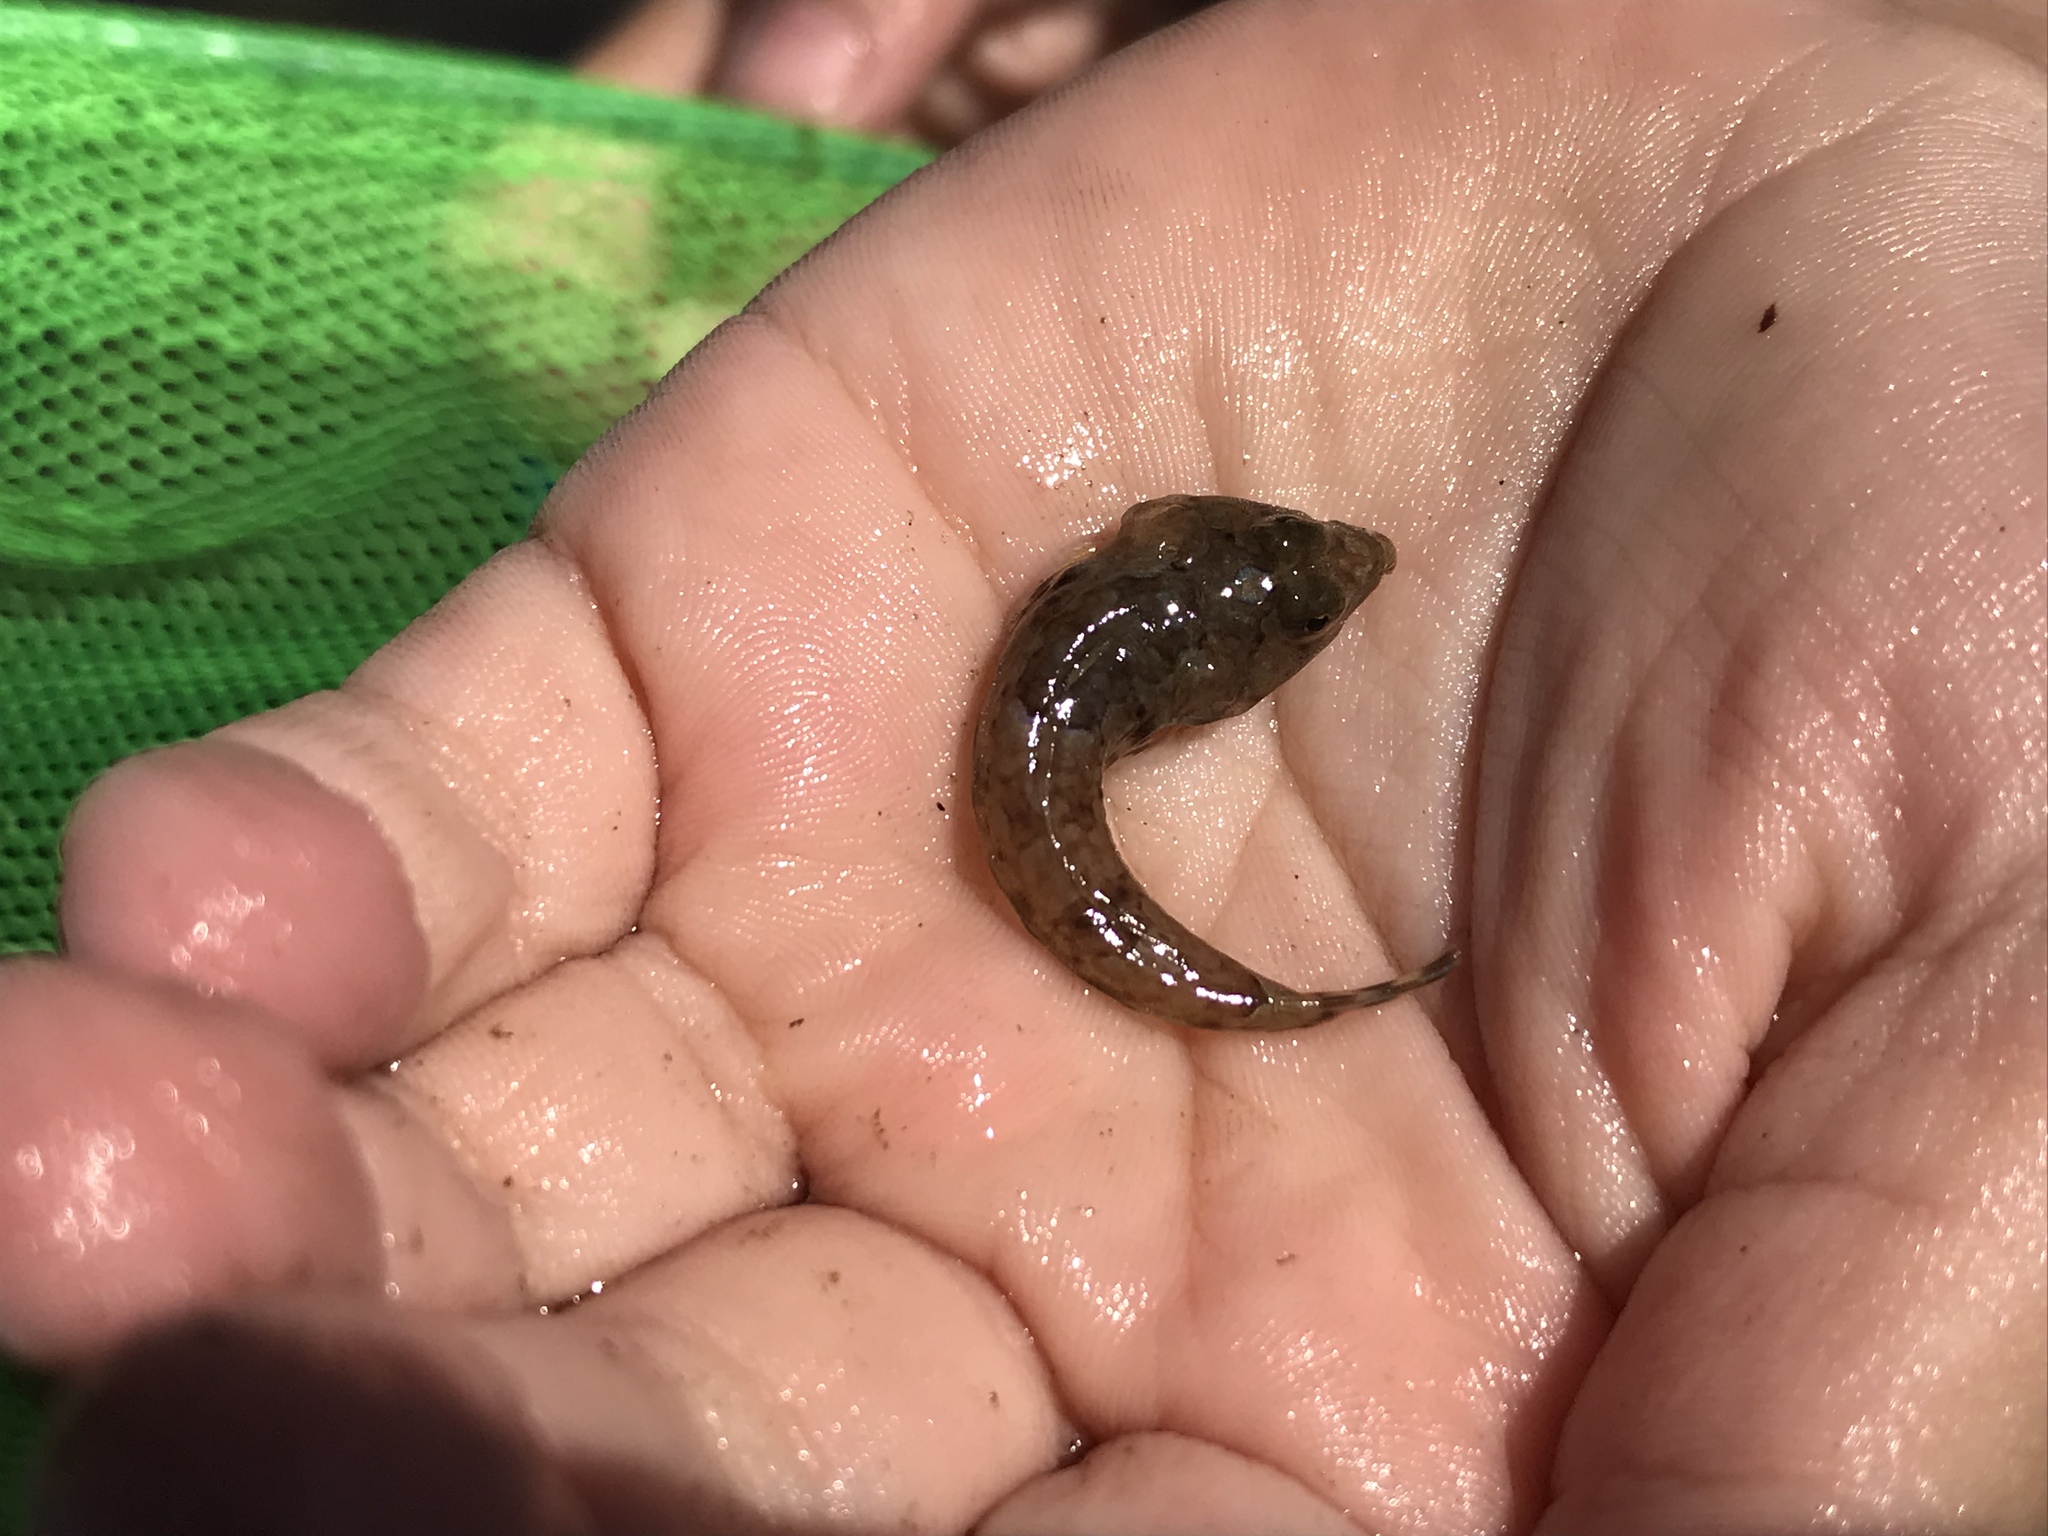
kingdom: Animalia
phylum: Chordata
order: Perciformes
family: Callionymidae
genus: Callionymus
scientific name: Callionymus lyra
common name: Dragonet
